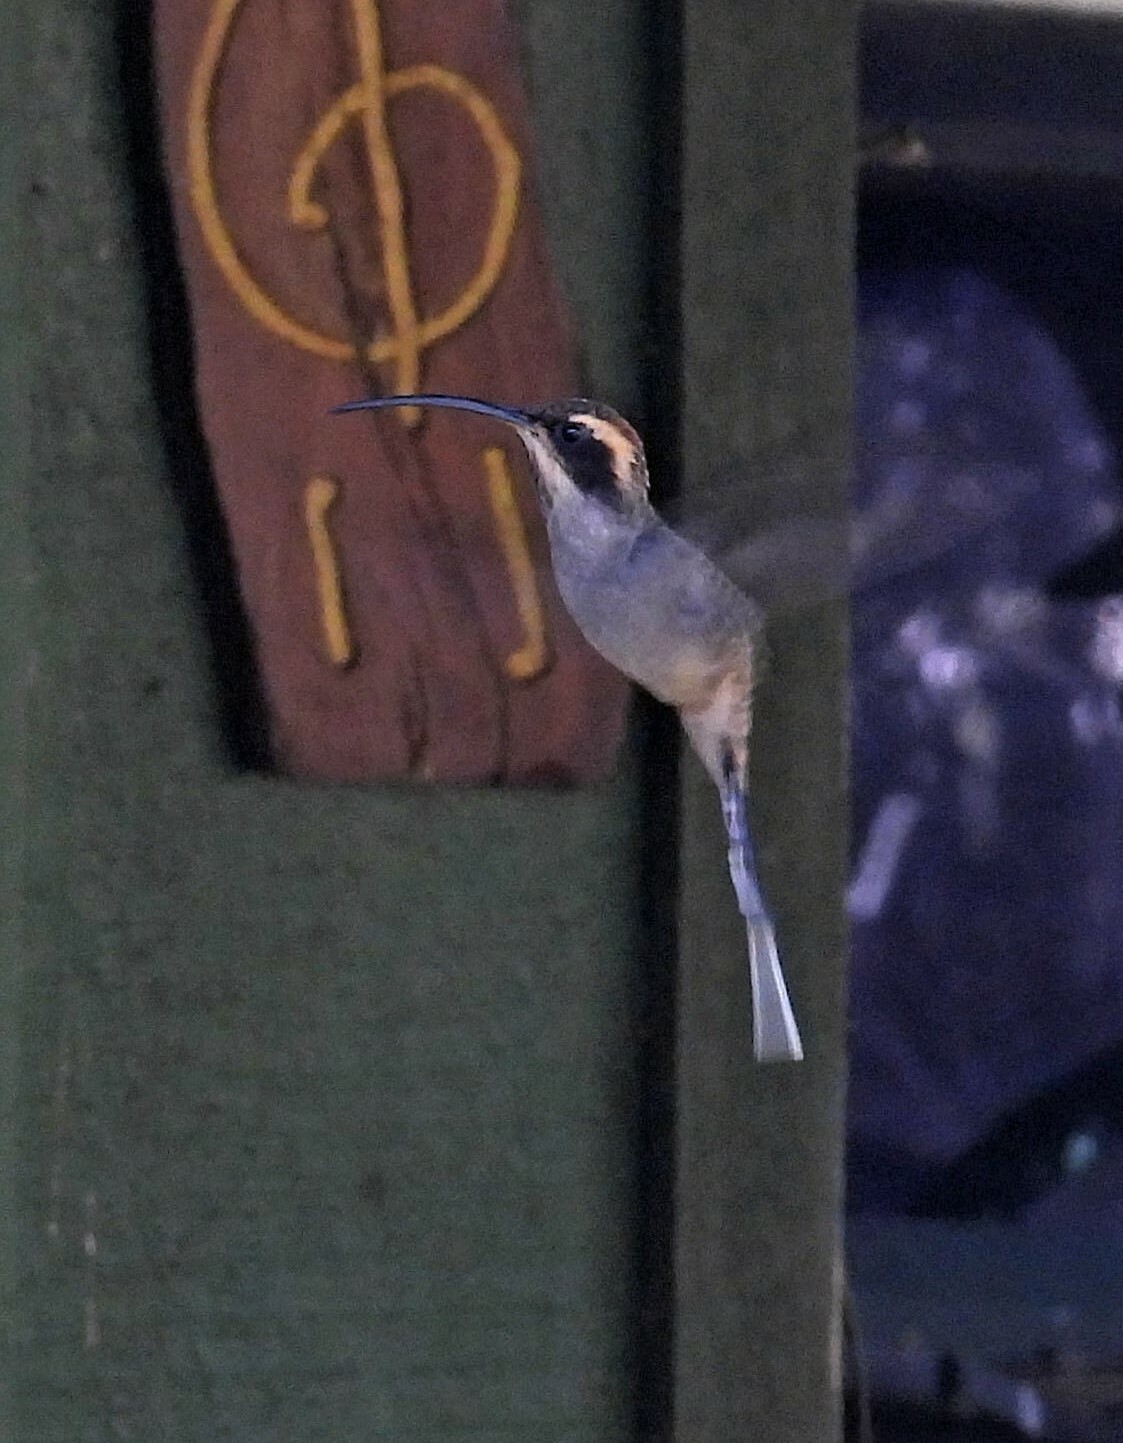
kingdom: Animalia
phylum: Chordata
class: Aves
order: Apodiformes
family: Trochilidae
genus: Phaethornis
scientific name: Phaethornis eurynome
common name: Scale-throated hermit
